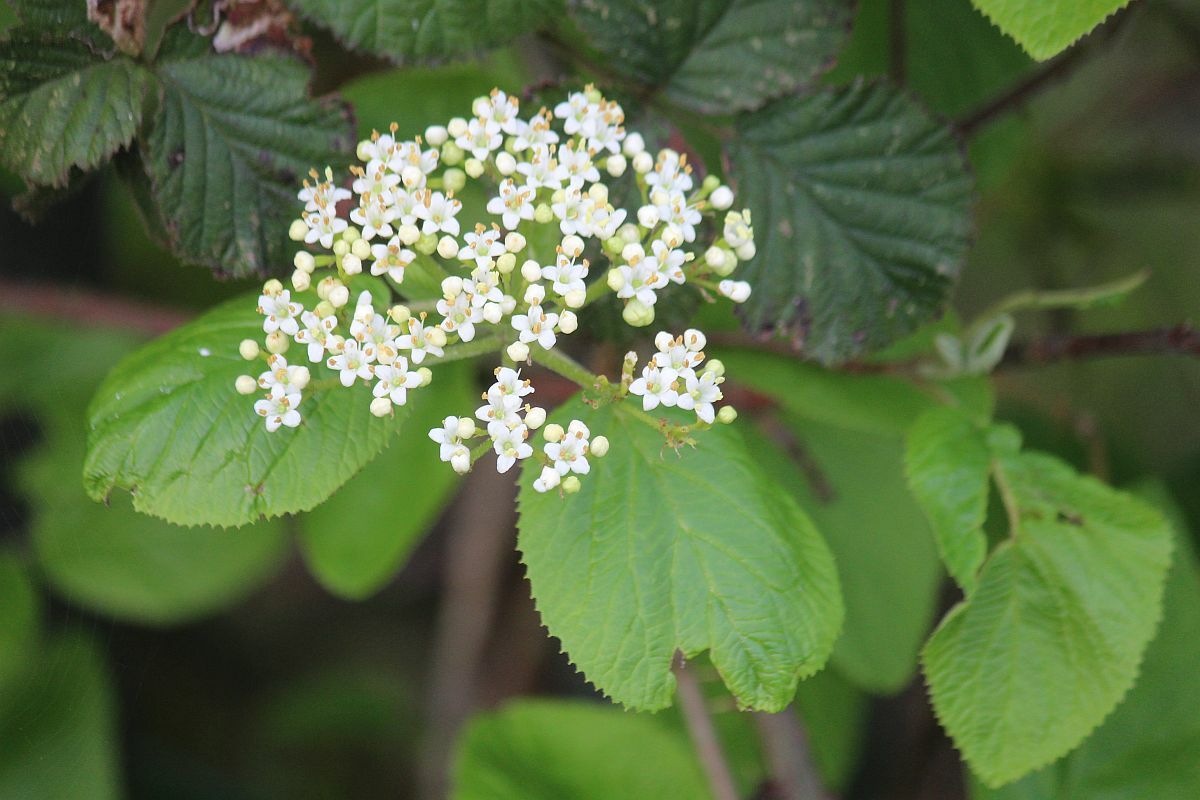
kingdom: Plantae
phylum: Tracheophyta
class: Magnoliopsida
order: Dipsacales
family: Viburnaceae
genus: Viburnum
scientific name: Viburnum lantana
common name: Wayfaring tree
